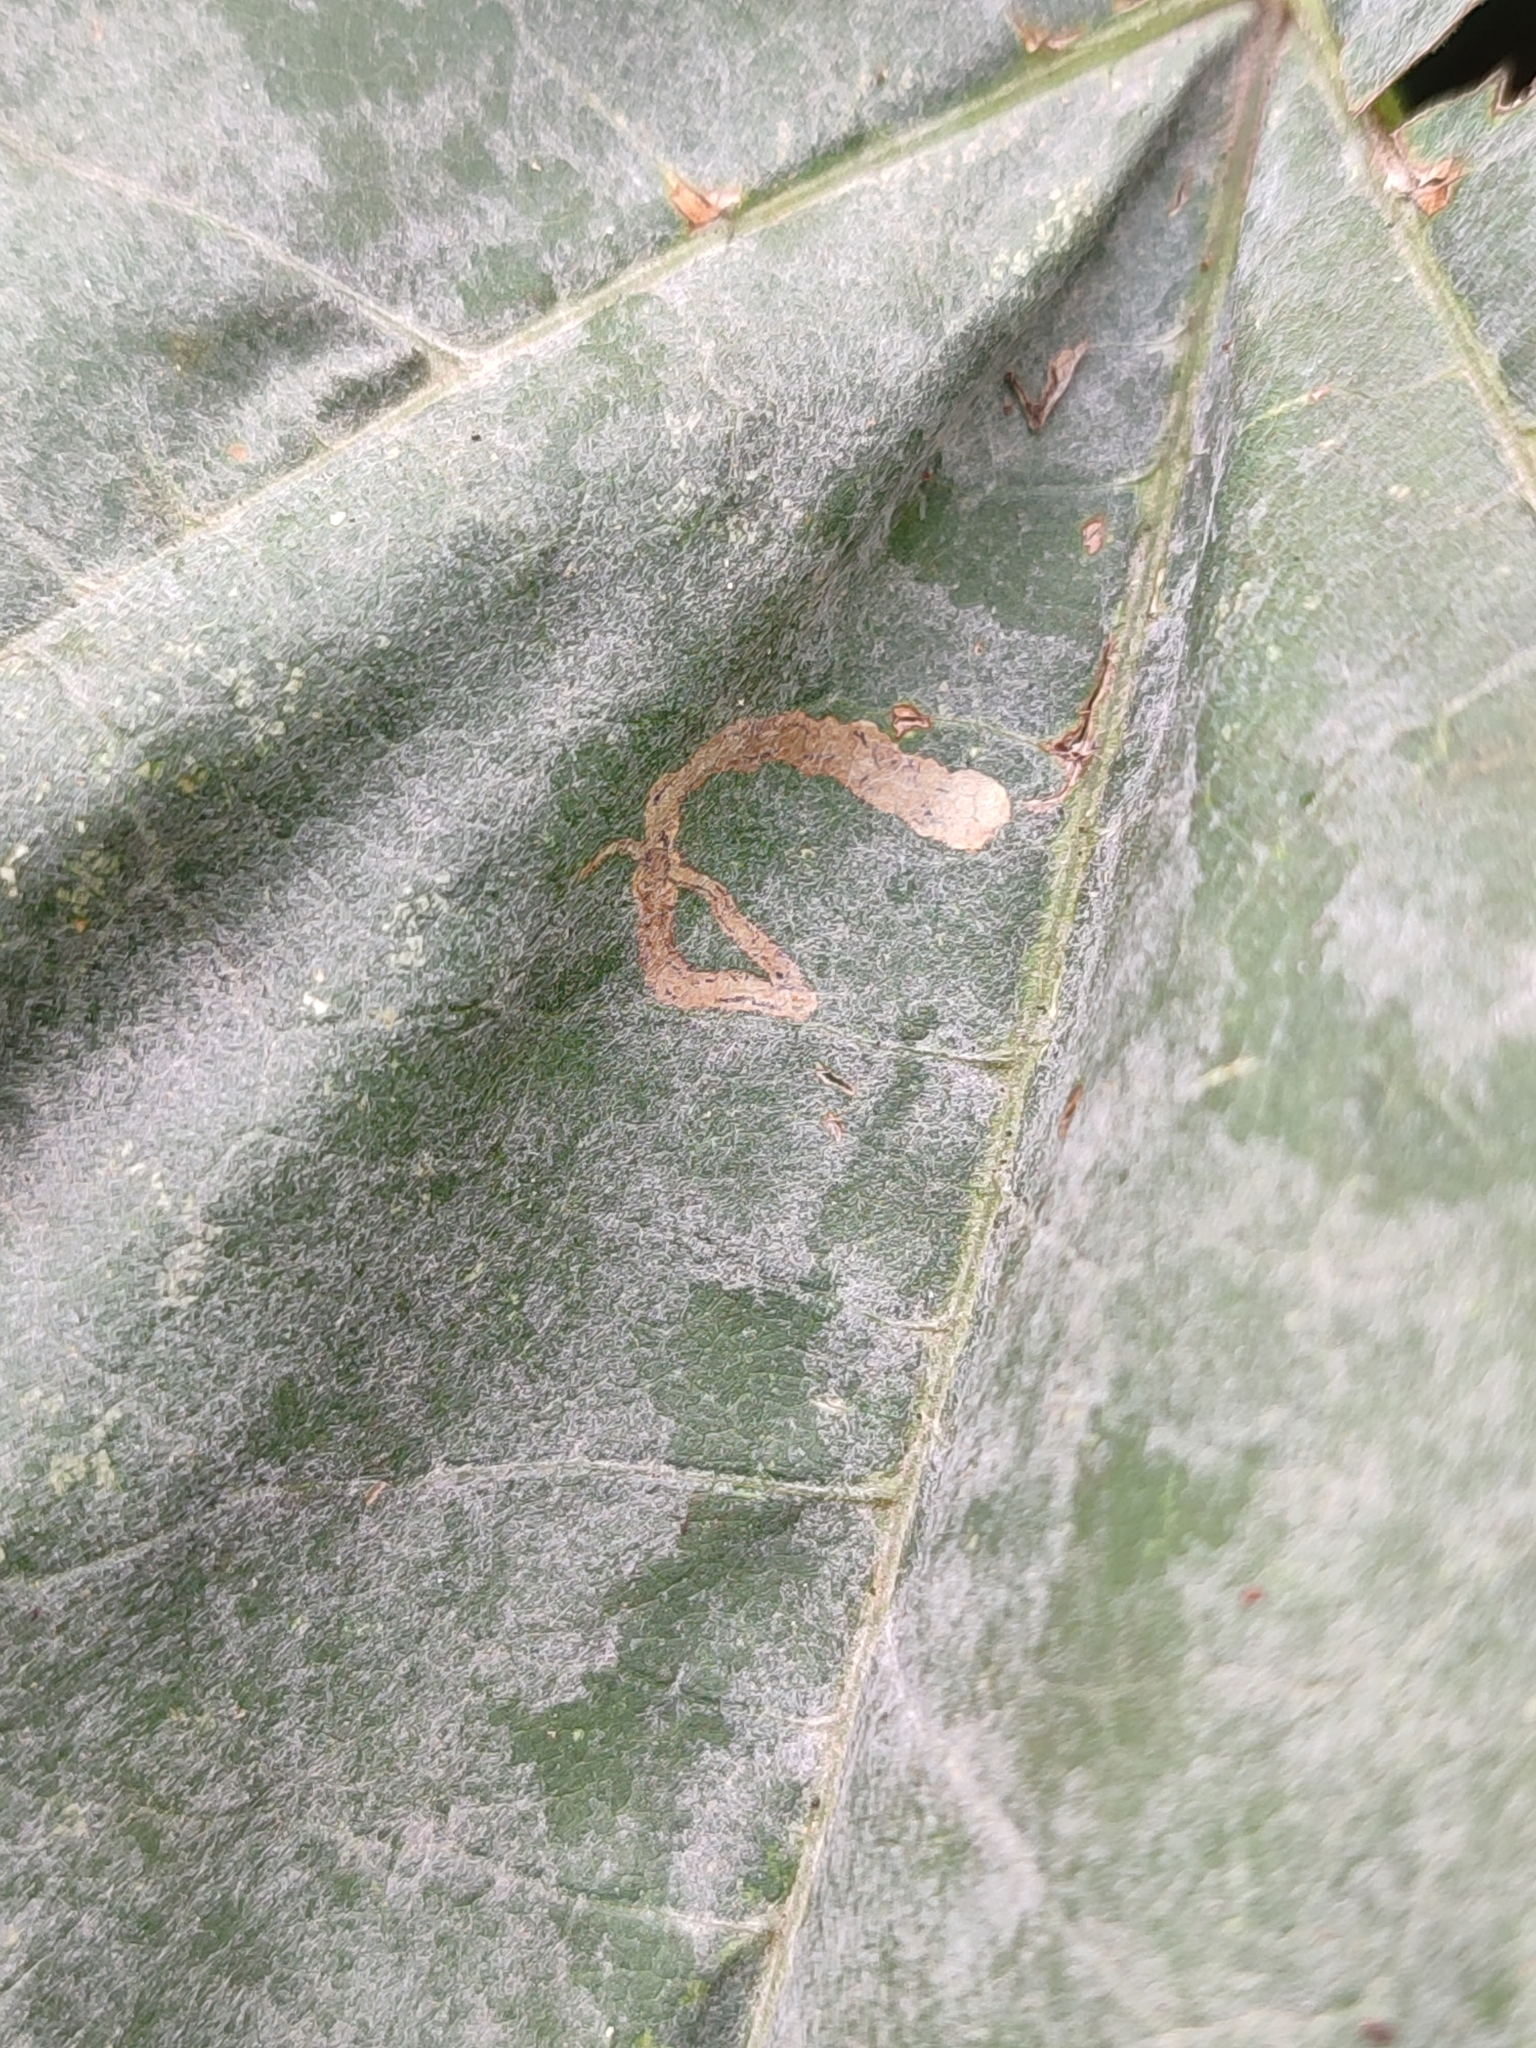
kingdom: Plantae
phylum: Tracheophyta
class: Magnoliopsida
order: Apiales
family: Apiaceae
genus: Heracleum
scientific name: Heracleum sosnowskyi
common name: Sosnowsky's hogweed
